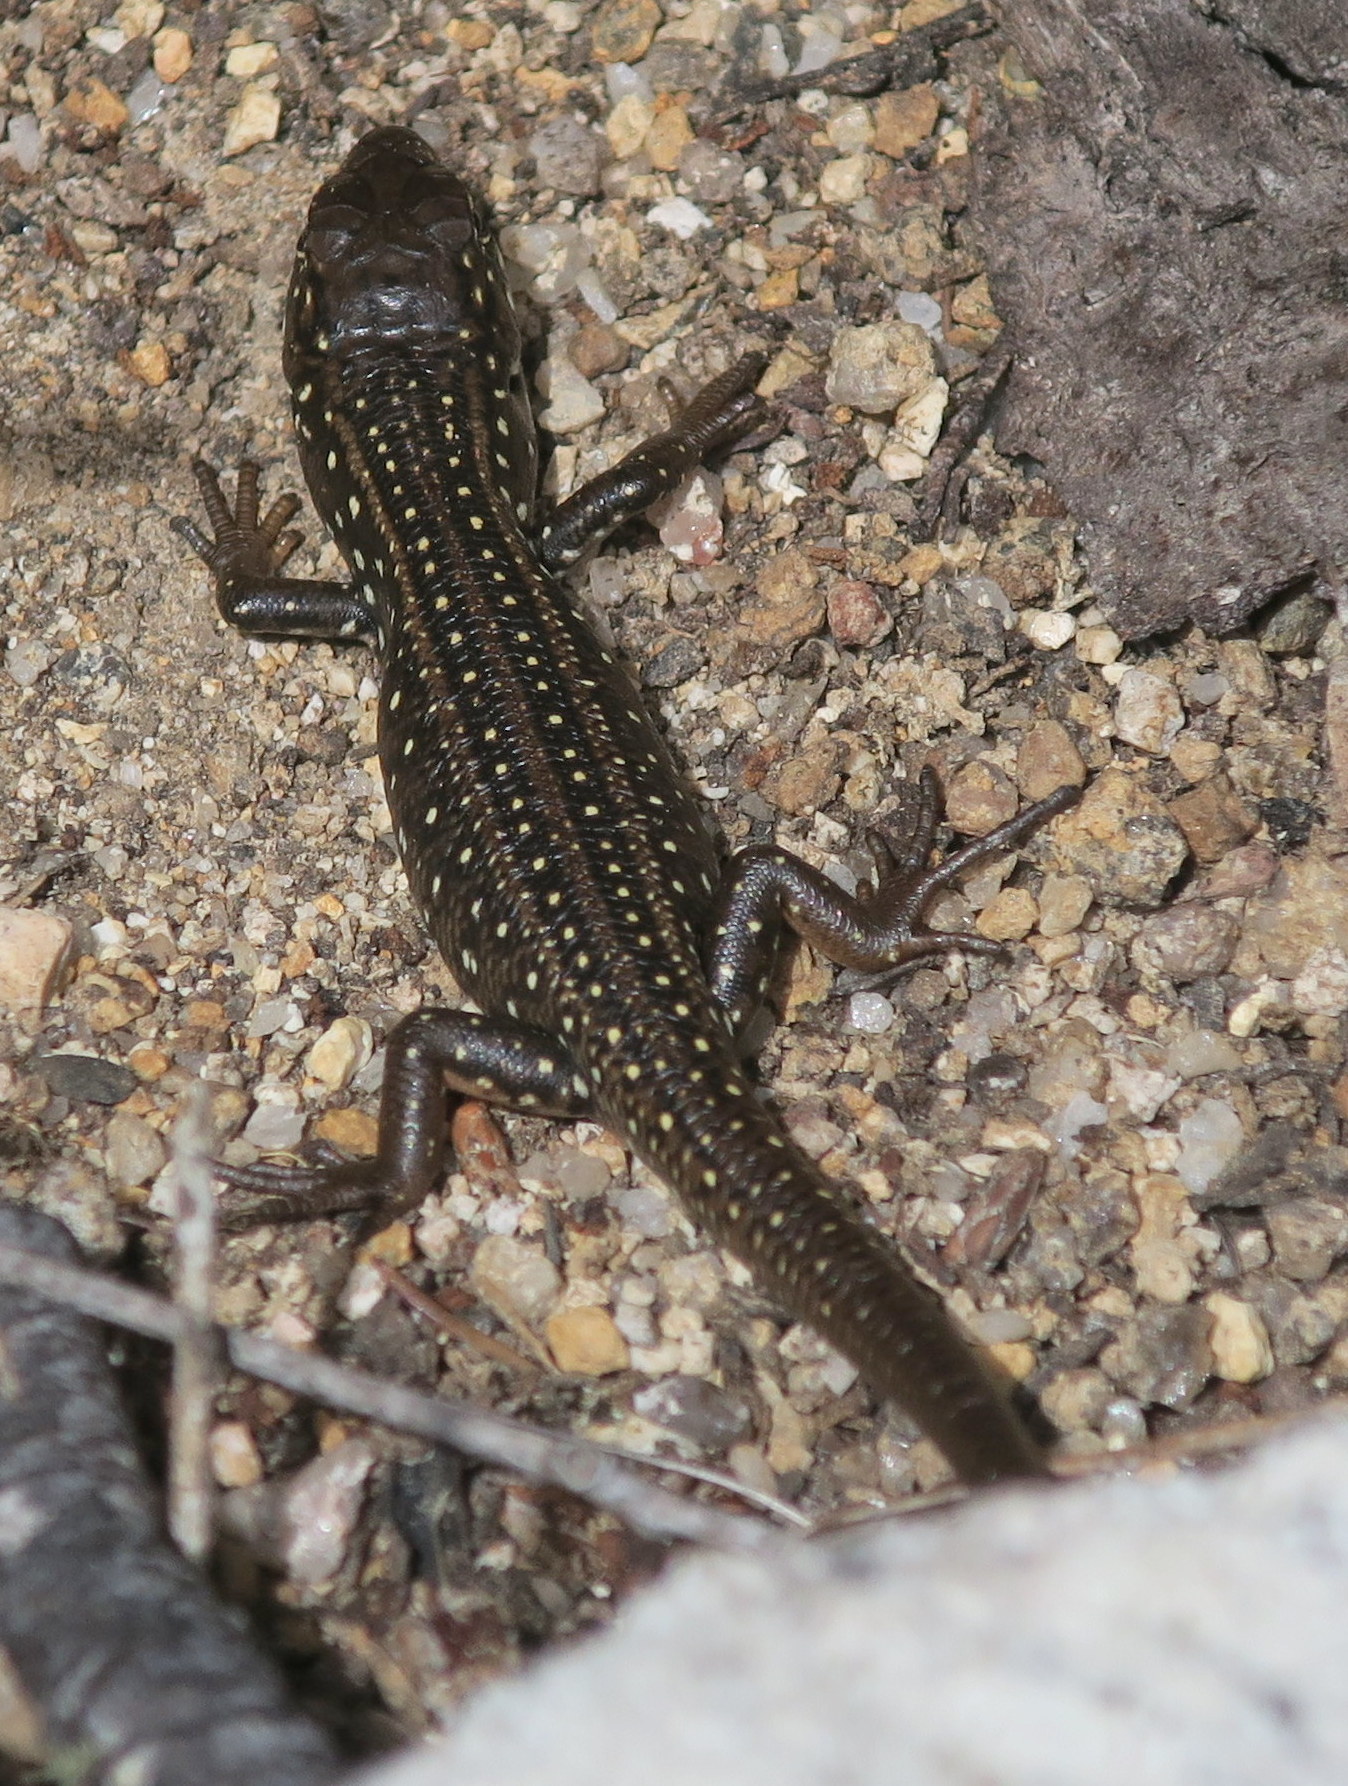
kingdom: Animalia
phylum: Chordata
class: Squamata
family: Scincidae
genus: Liopholis
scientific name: Liopholis whitii
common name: White's rock-skink
